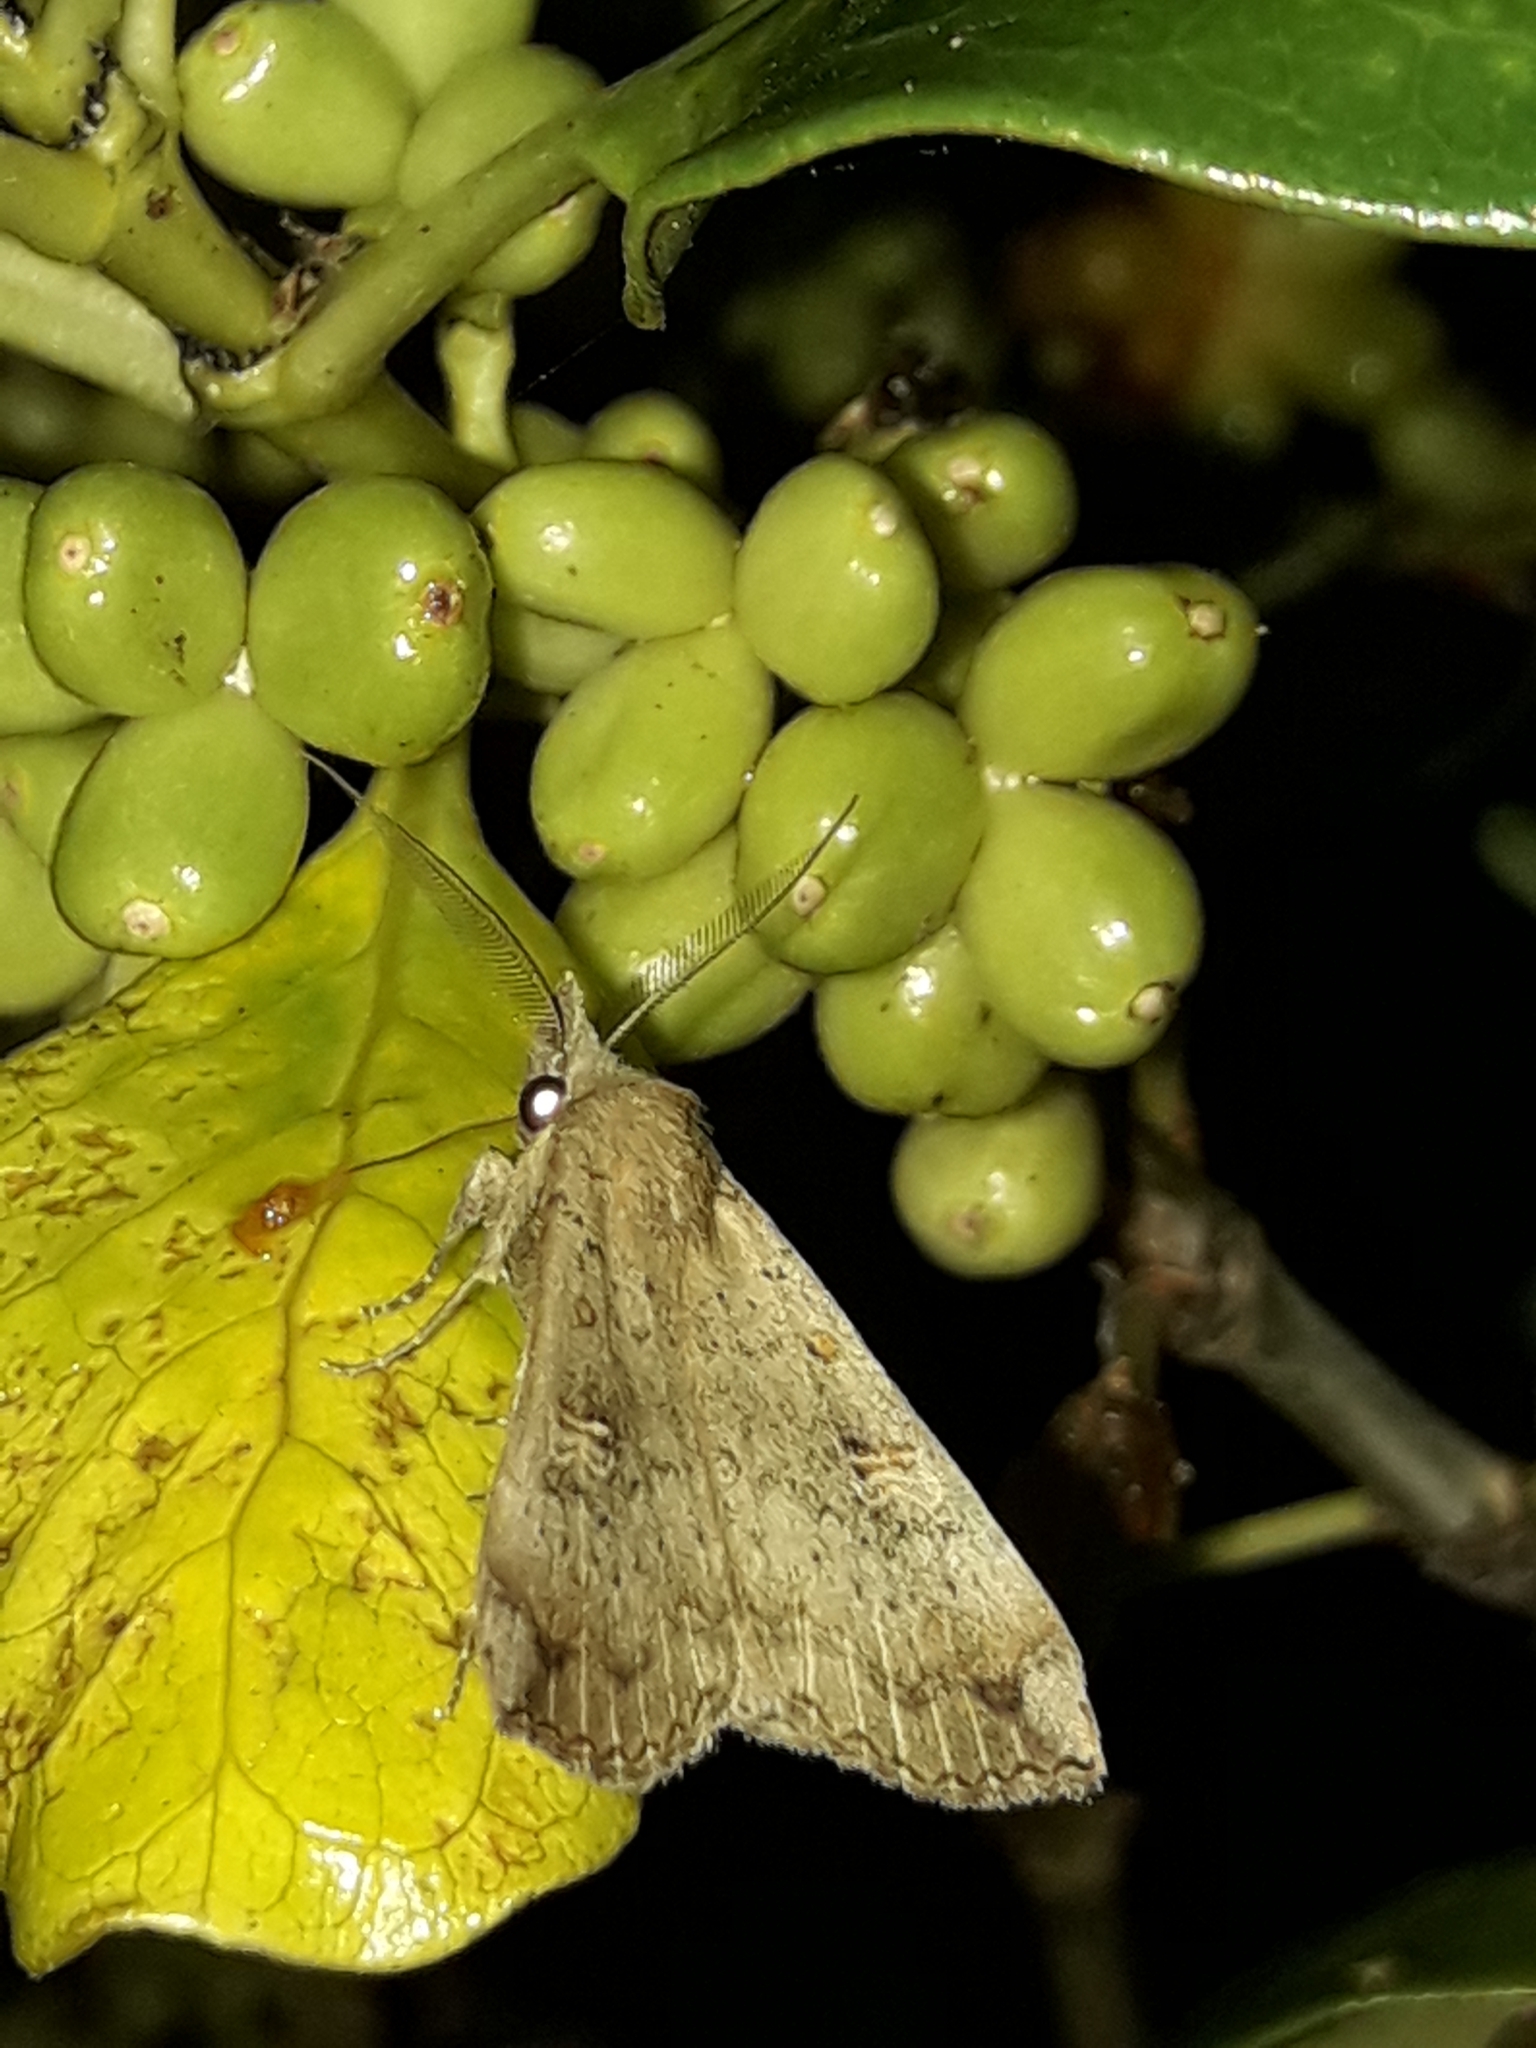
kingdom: Animalia
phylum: Arthropoda
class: Insecta
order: Lepidoptera
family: Erebidae
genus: Rhapsa
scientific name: Rhapsa scotosialis
